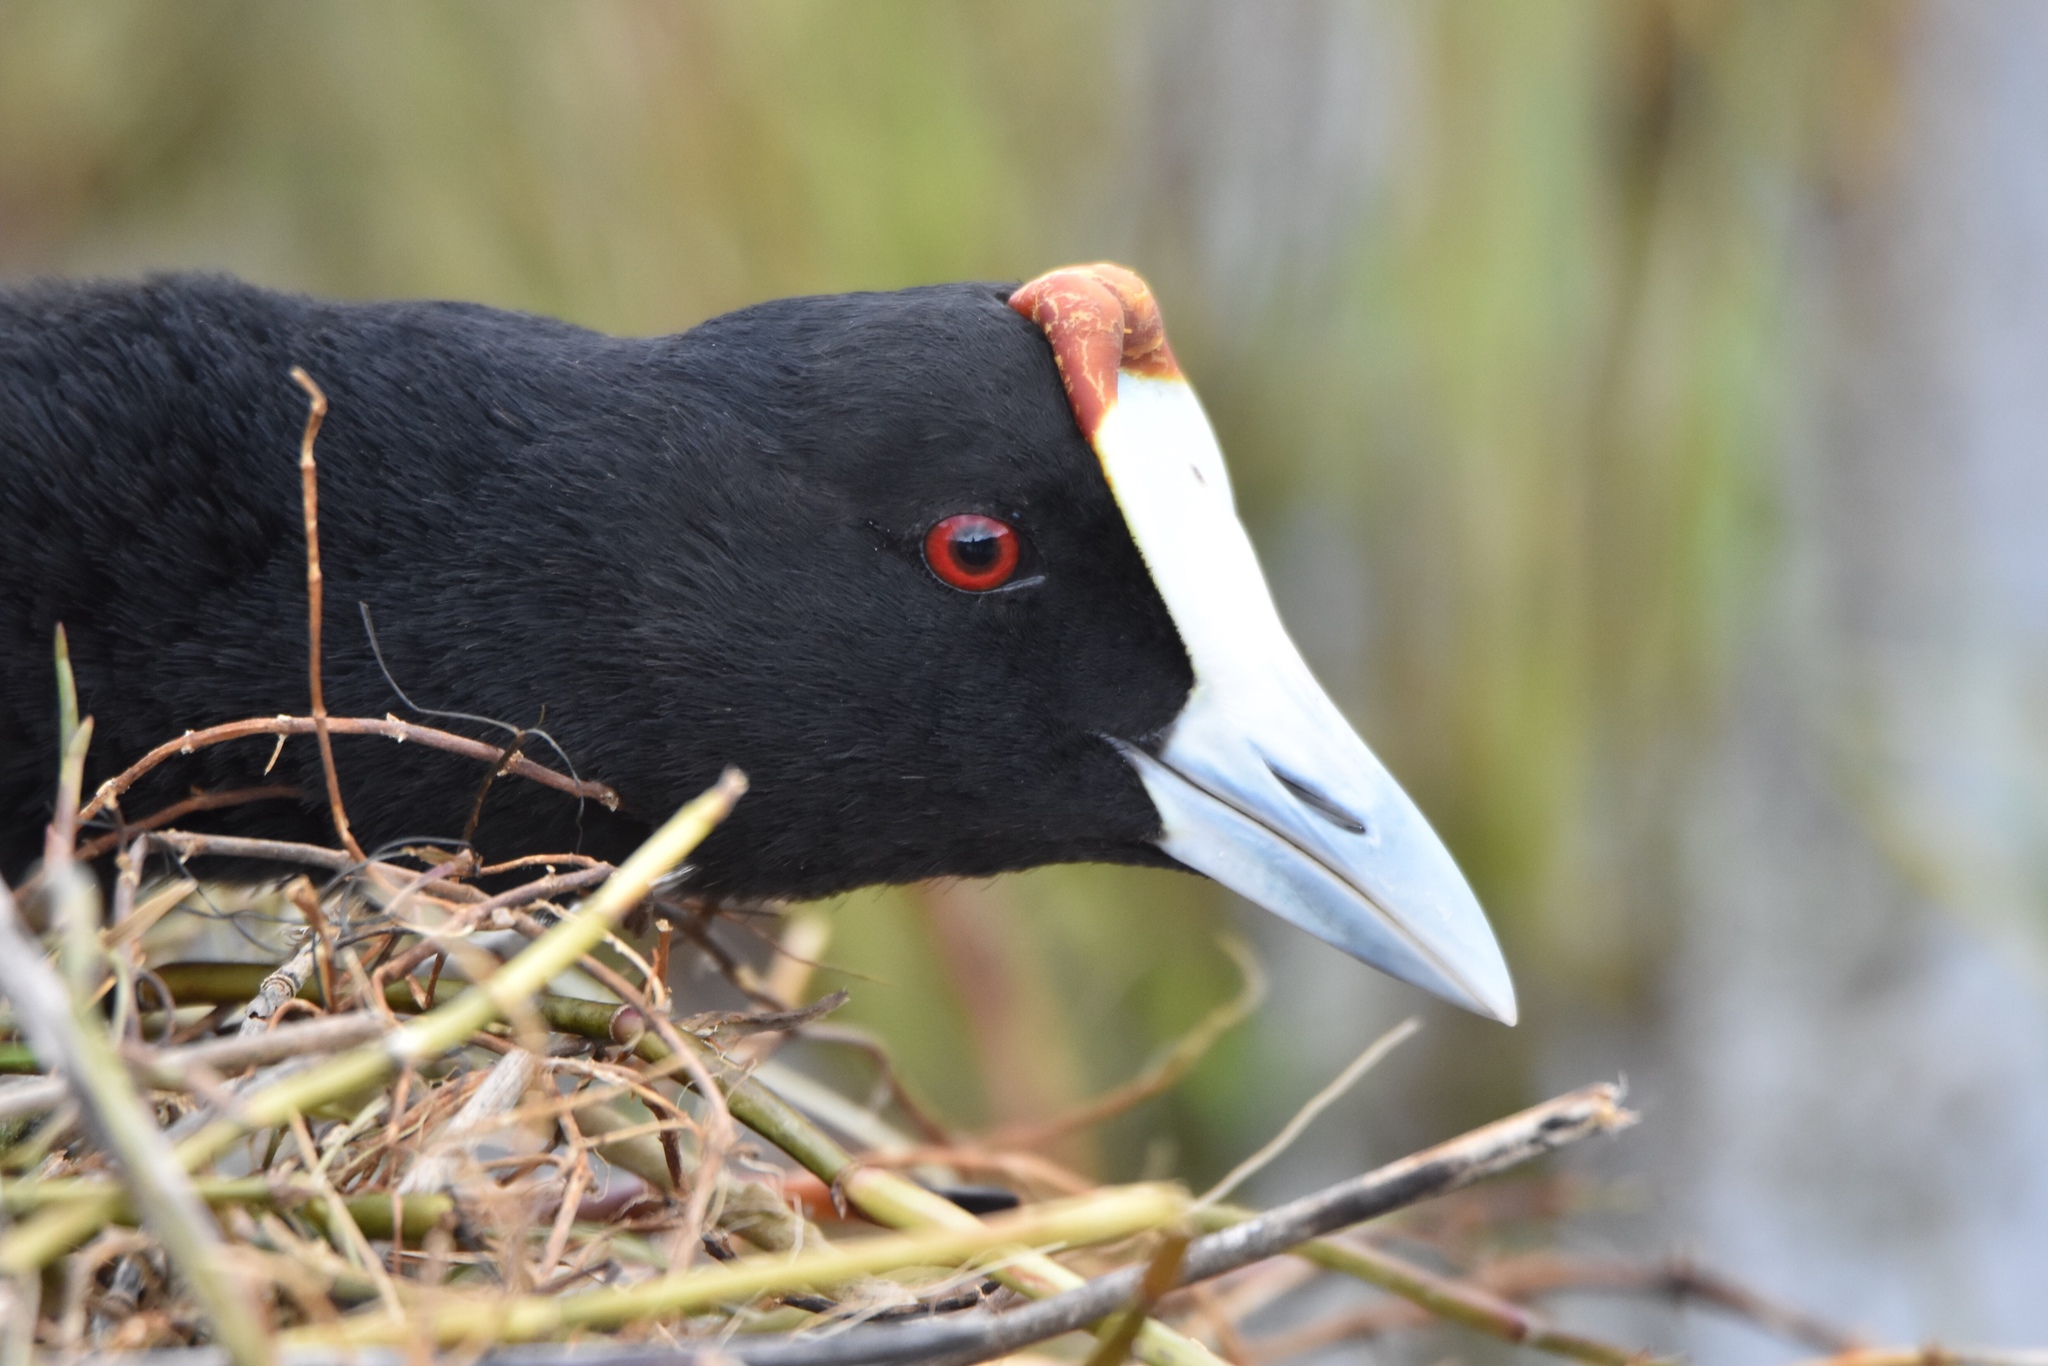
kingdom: Animalia
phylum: Chordata
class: Aves
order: Gruiformes
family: Rallidae
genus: Fulica
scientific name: Fulica cristata
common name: Red-knobbed coot
